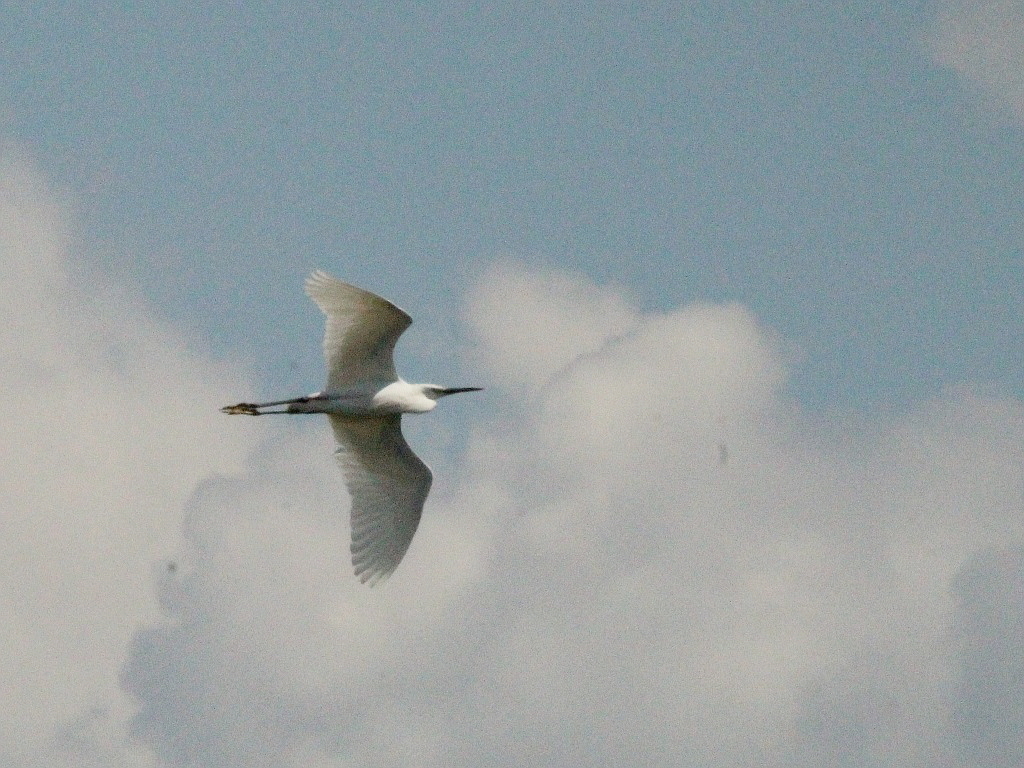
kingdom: Animalia
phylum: Chordata
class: Aves
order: Pelecaniformes
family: Ardeidae
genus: Egretta
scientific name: Egretta garzetta
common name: Little egret
